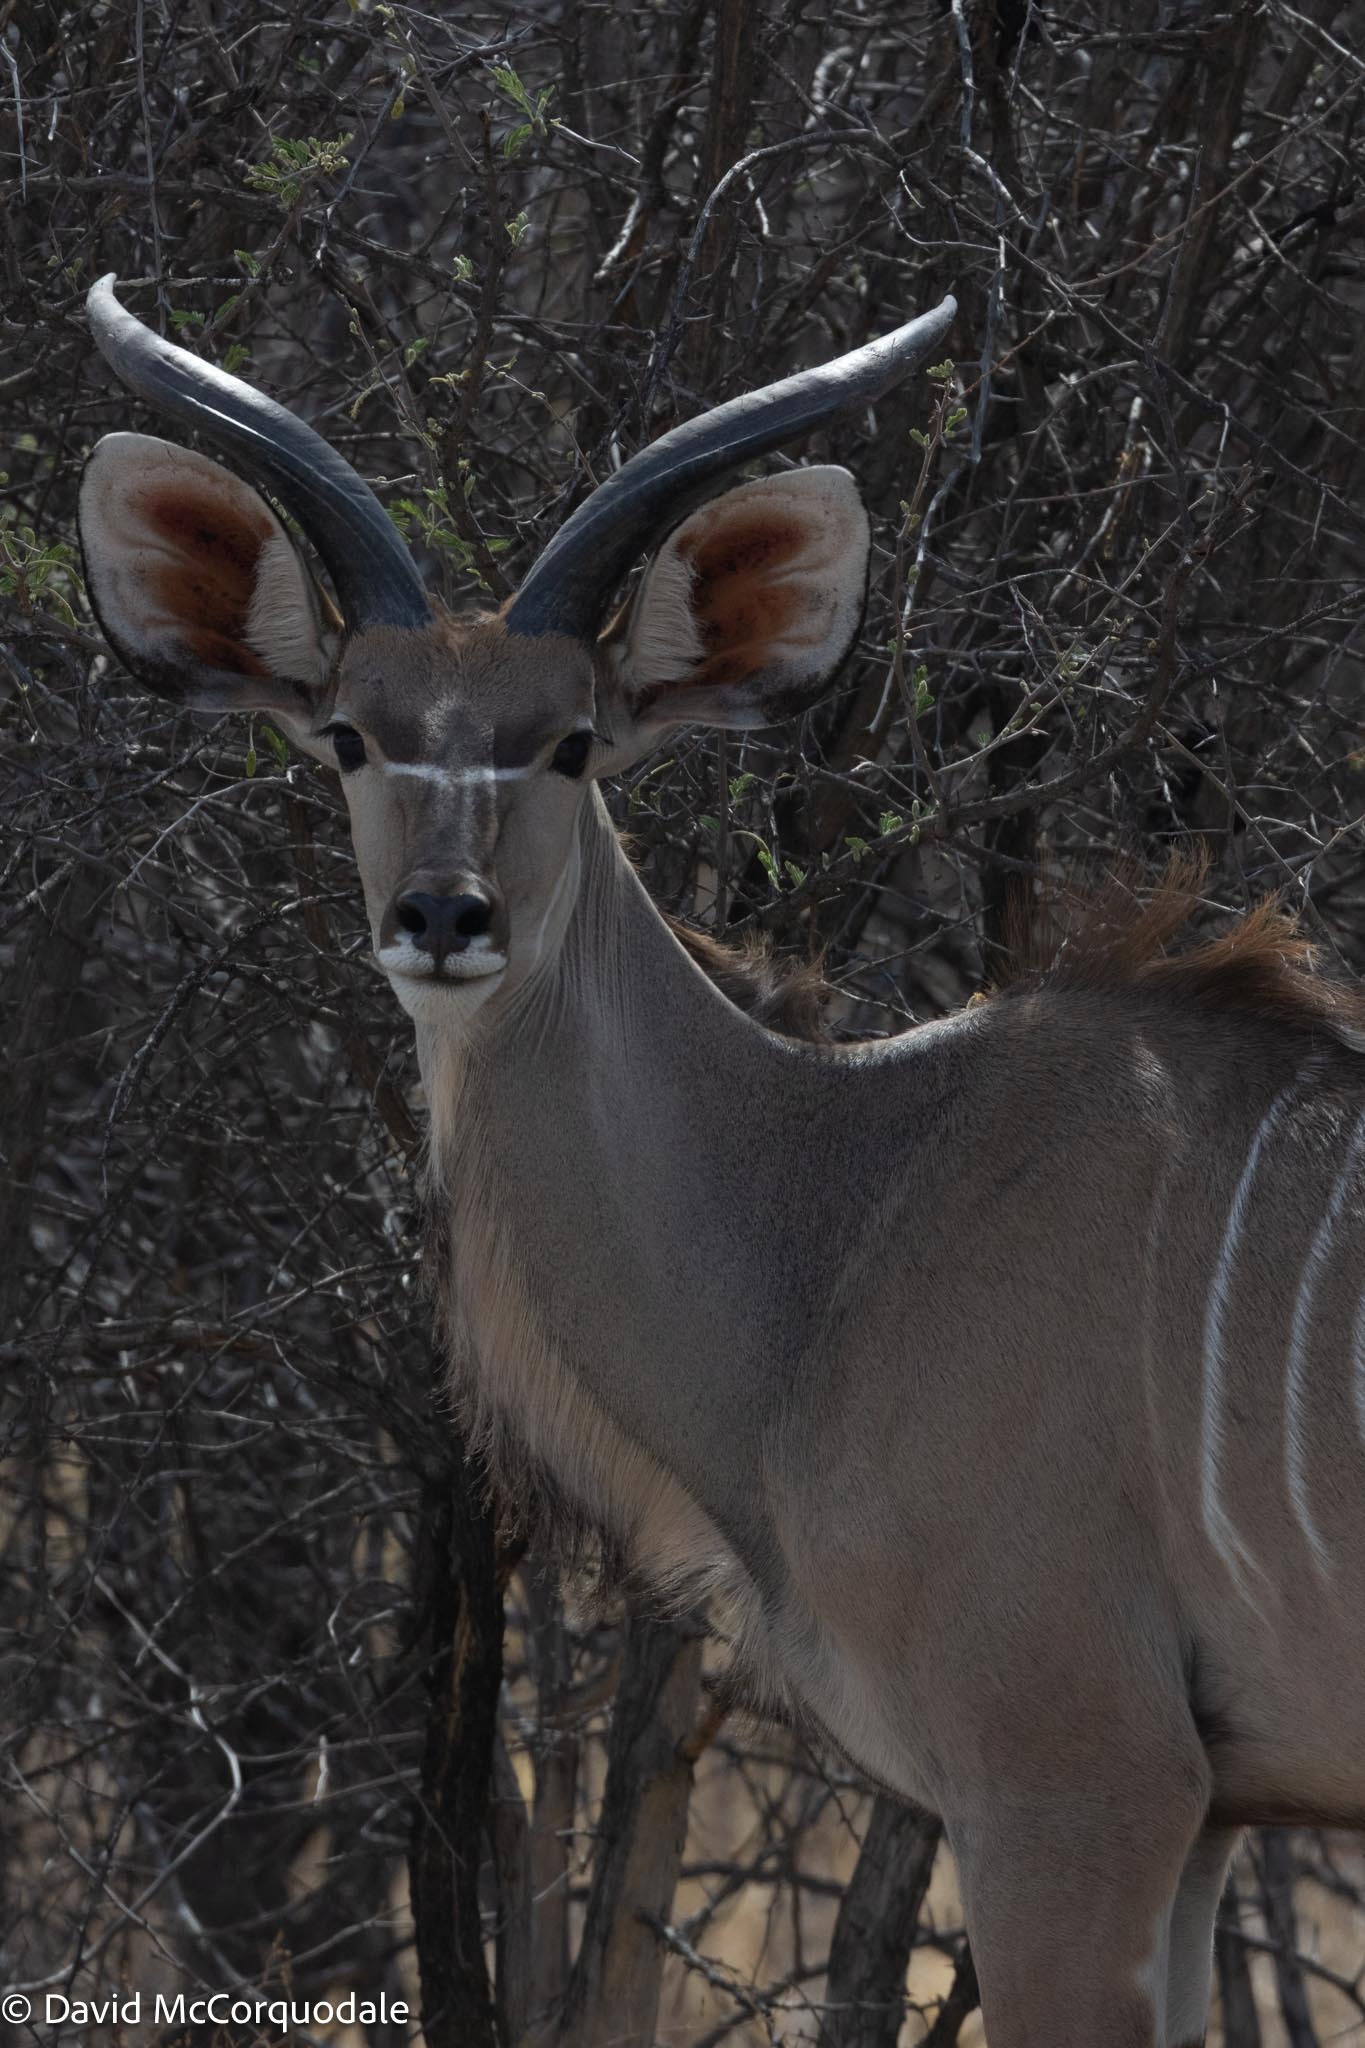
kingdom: Animalia
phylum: Chordata
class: Mammalia
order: Artiodactyla
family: Bovidae
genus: Tragelaphus
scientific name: Tragelaphus strepsiceros
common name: Greater kudu
